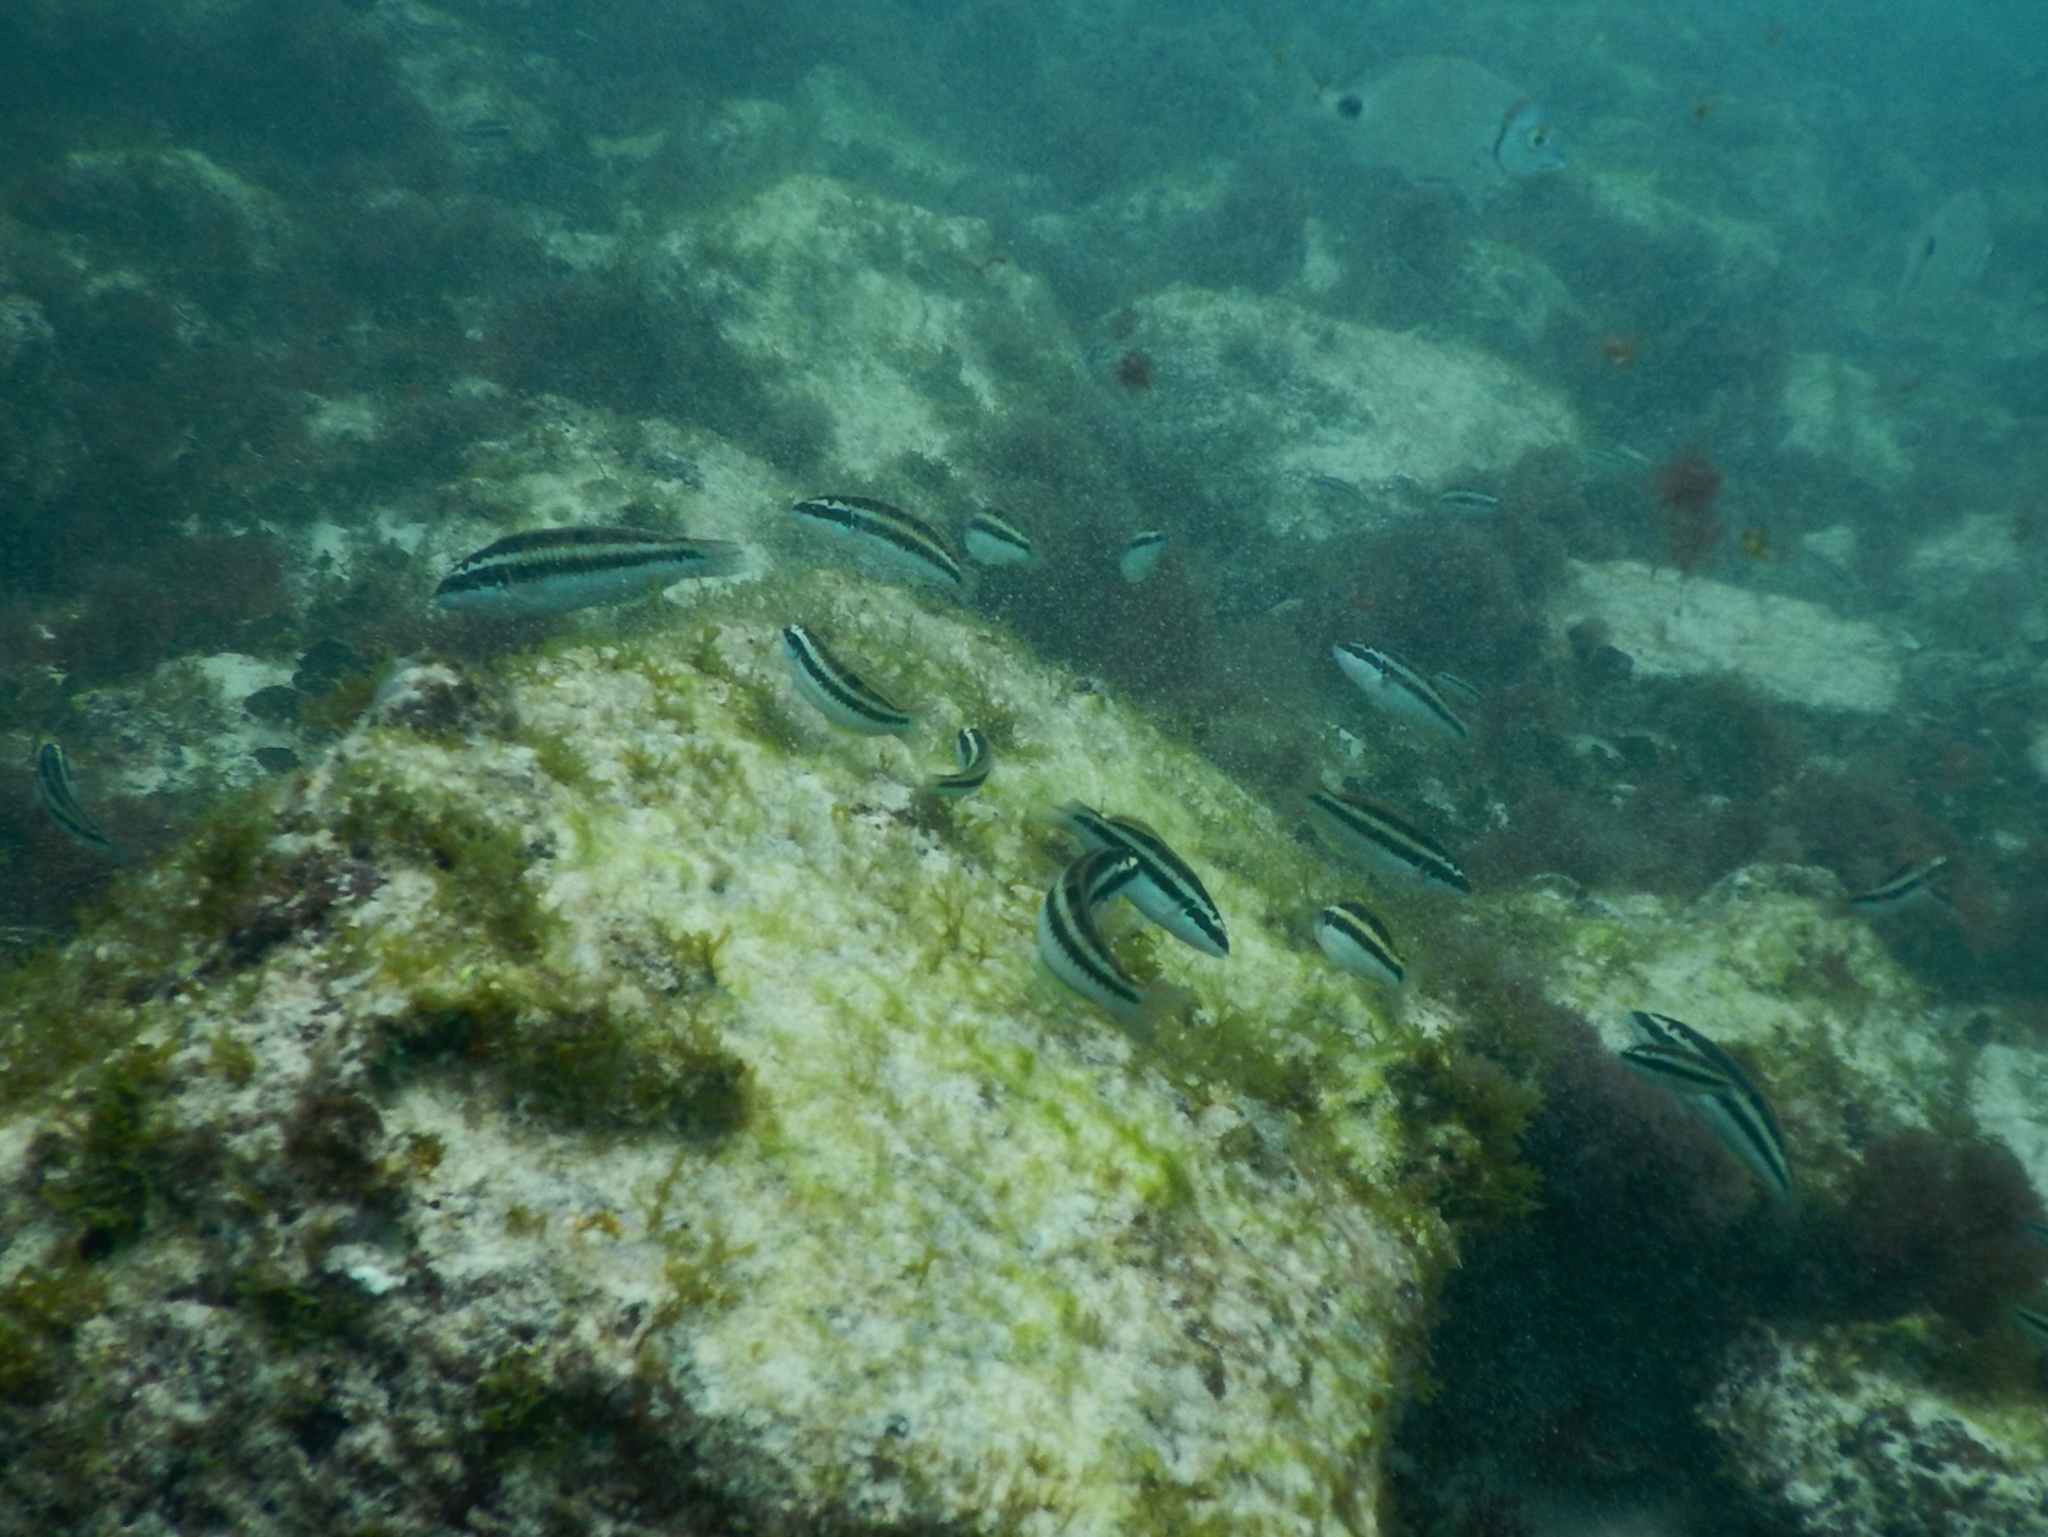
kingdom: Animalia
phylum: Chordata
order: Perciformes
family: Labridae
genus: Thalassoma
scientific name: Thalassoma pavo
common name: Ornate wrasse
